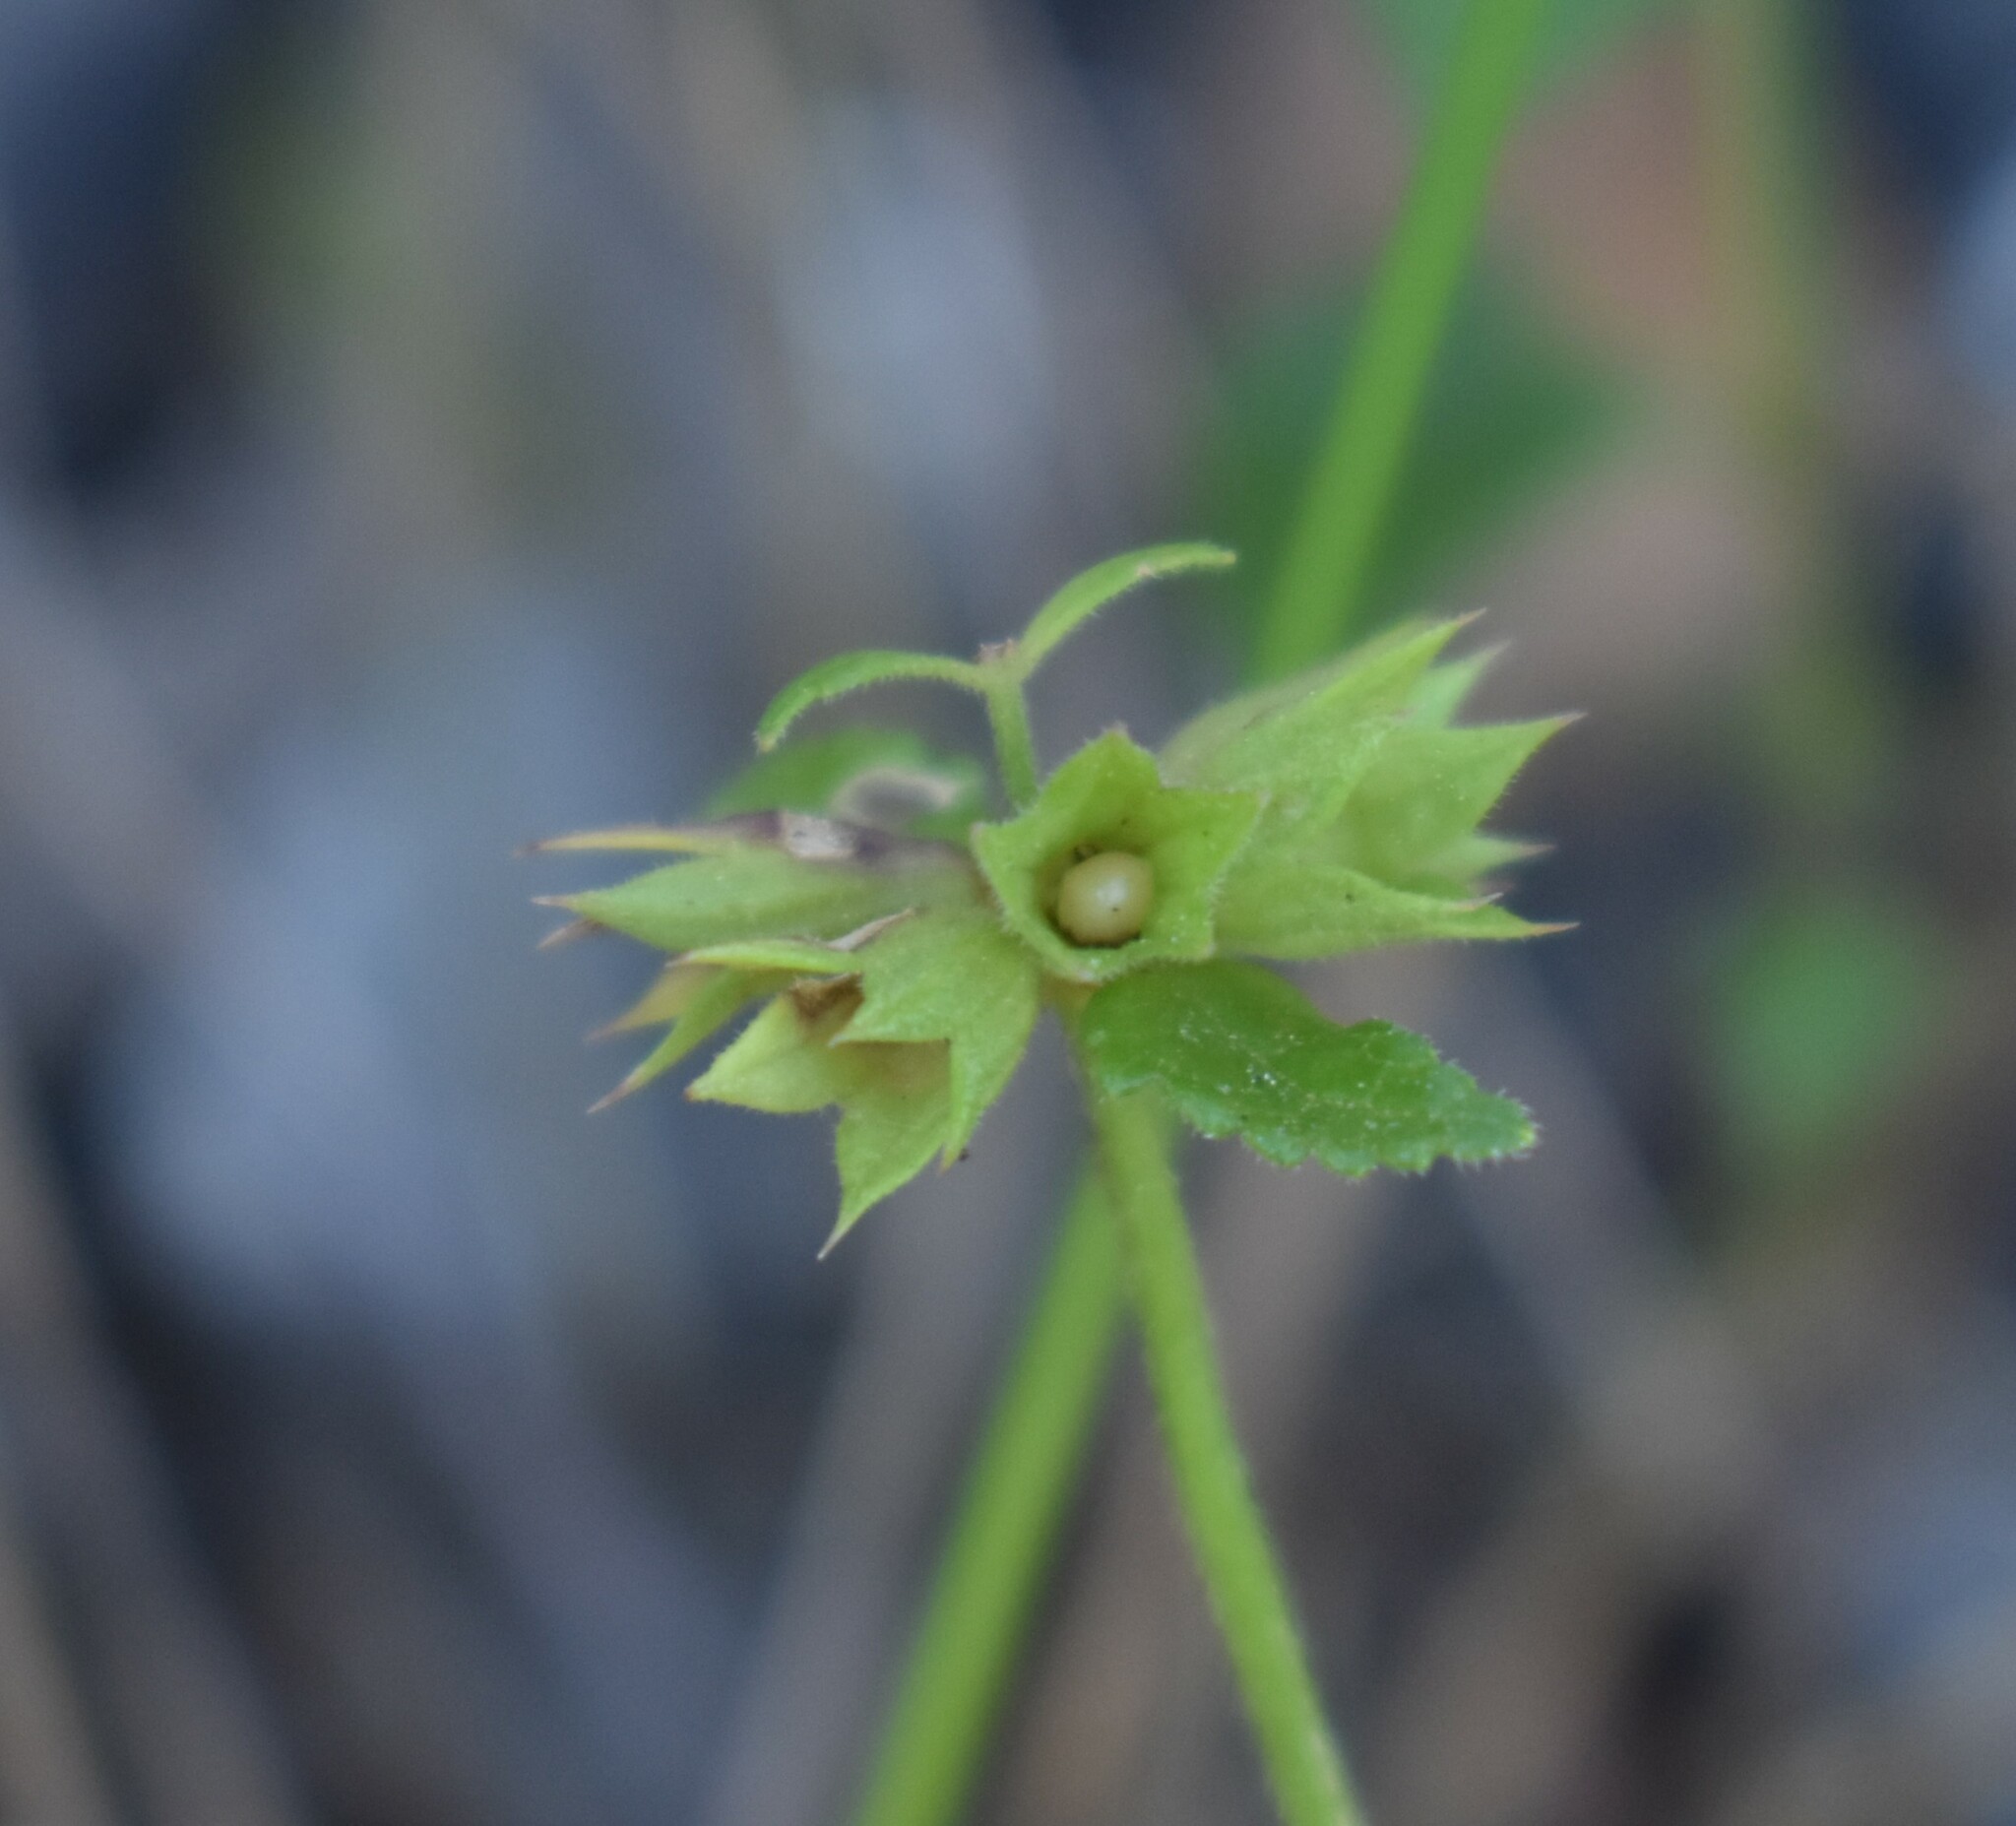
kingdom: Plantae
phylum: Tracheophyta
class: Magnoliopsida
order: Lamiales
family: Lamiaceae
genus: Stachys
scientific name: Stachys aethiopica
